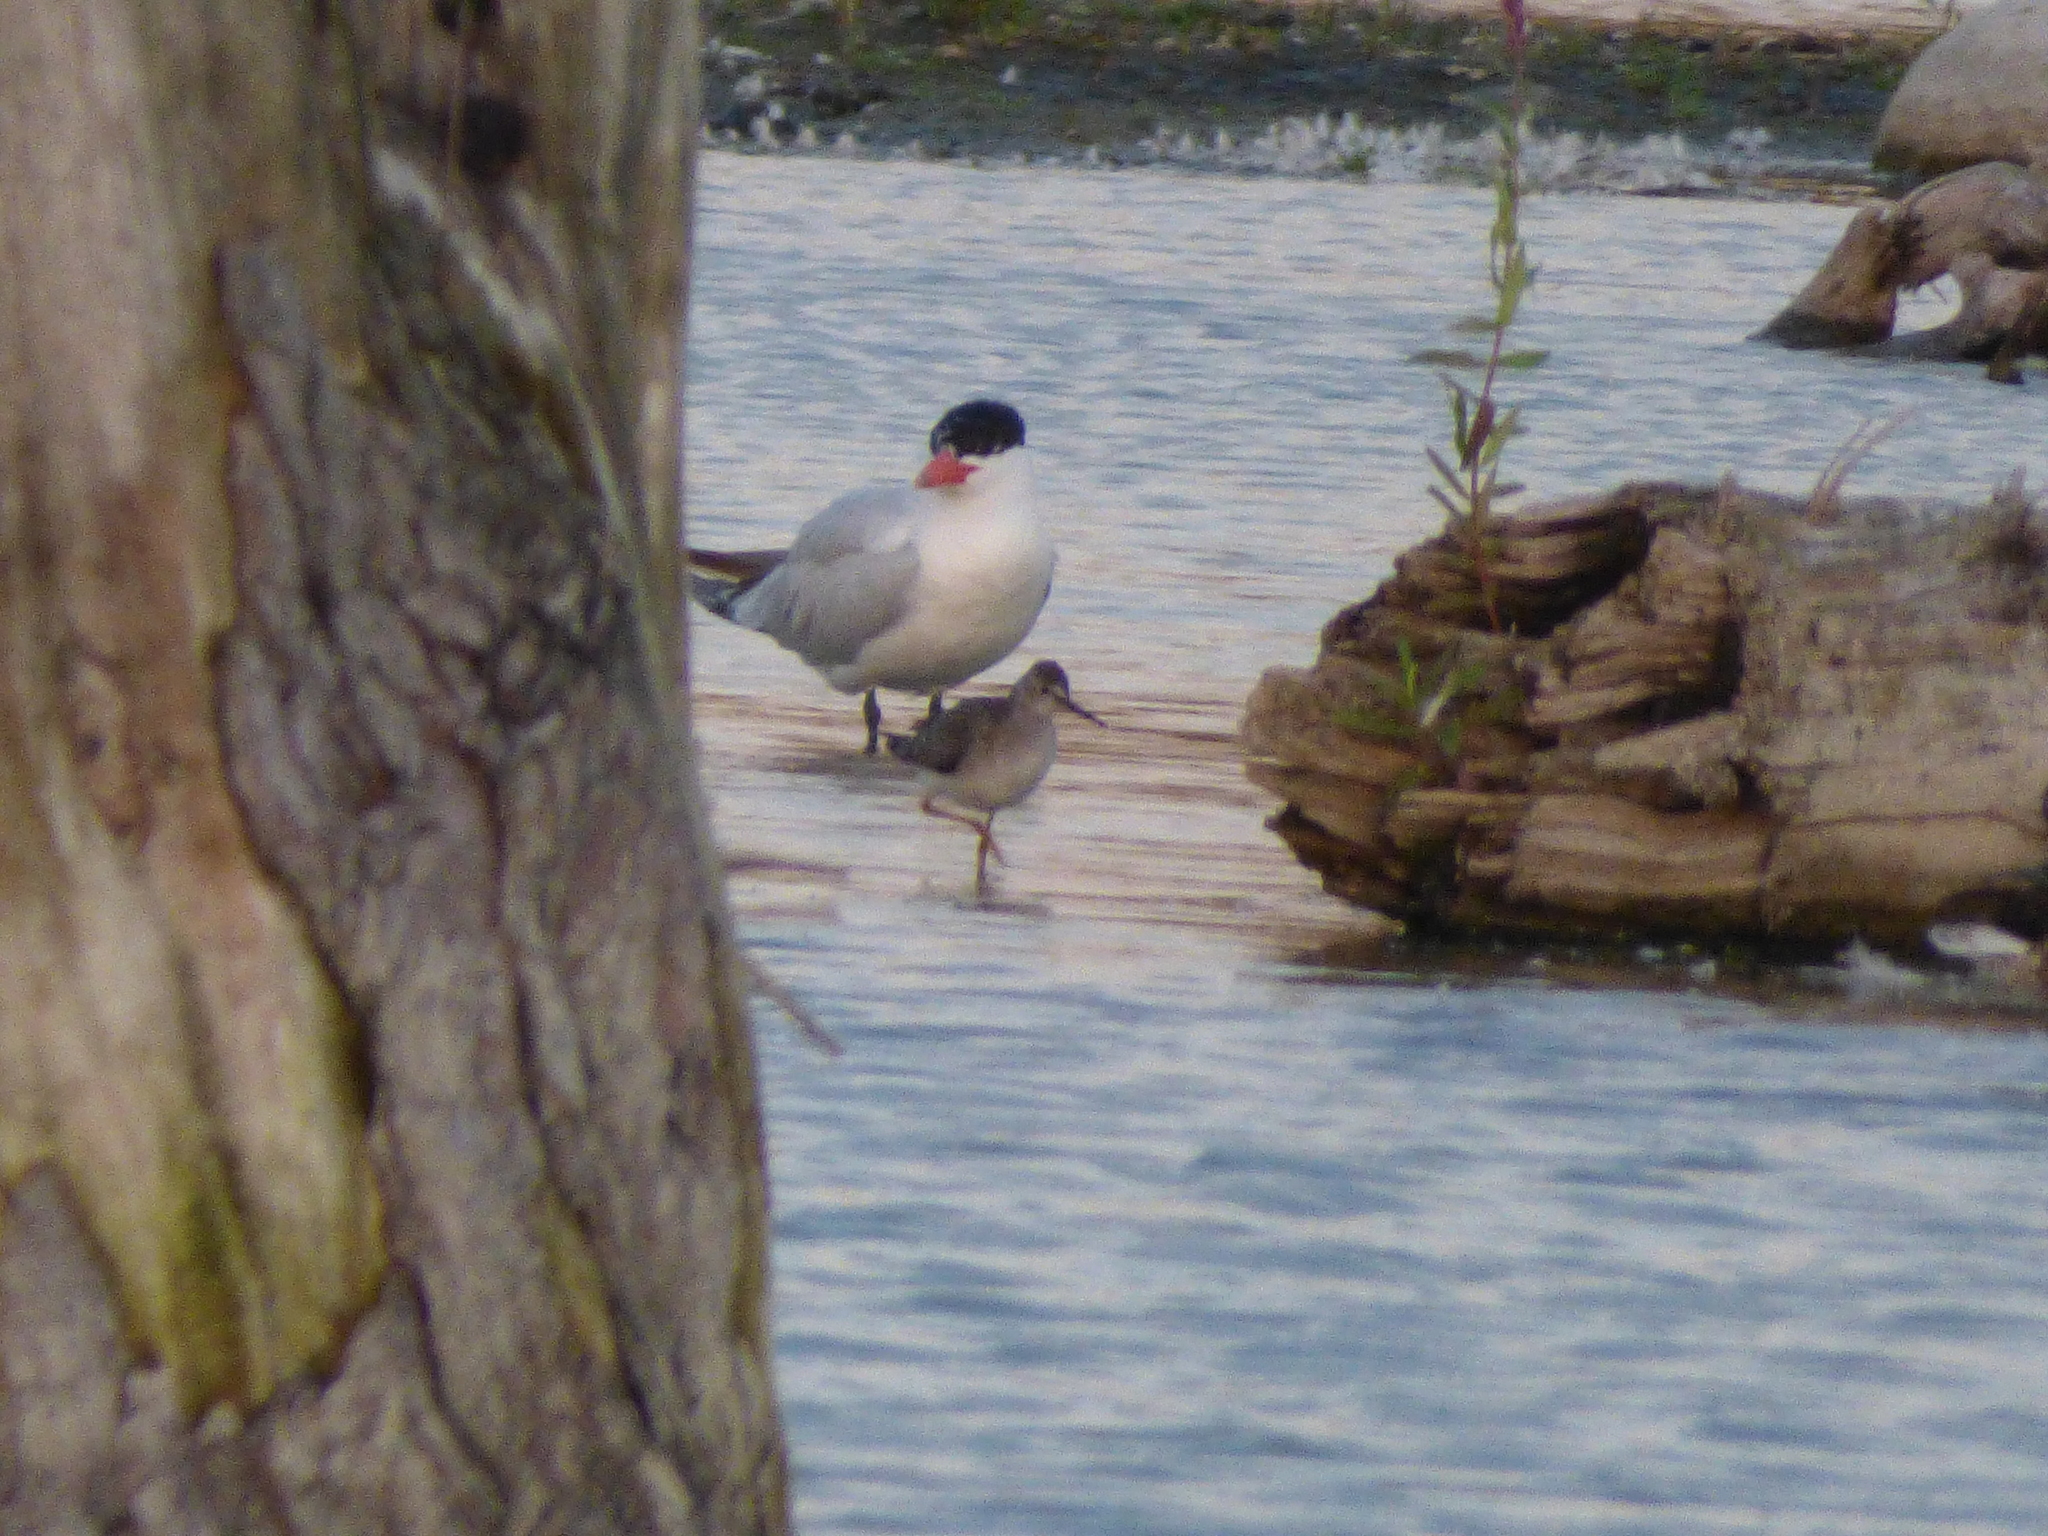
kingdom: Animalia
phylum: Chordata
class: Aves
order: Charadriiformes
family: Scolopacidae
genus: Tringa
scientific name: Tringa flavipes
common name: Lesser yellowlegs
